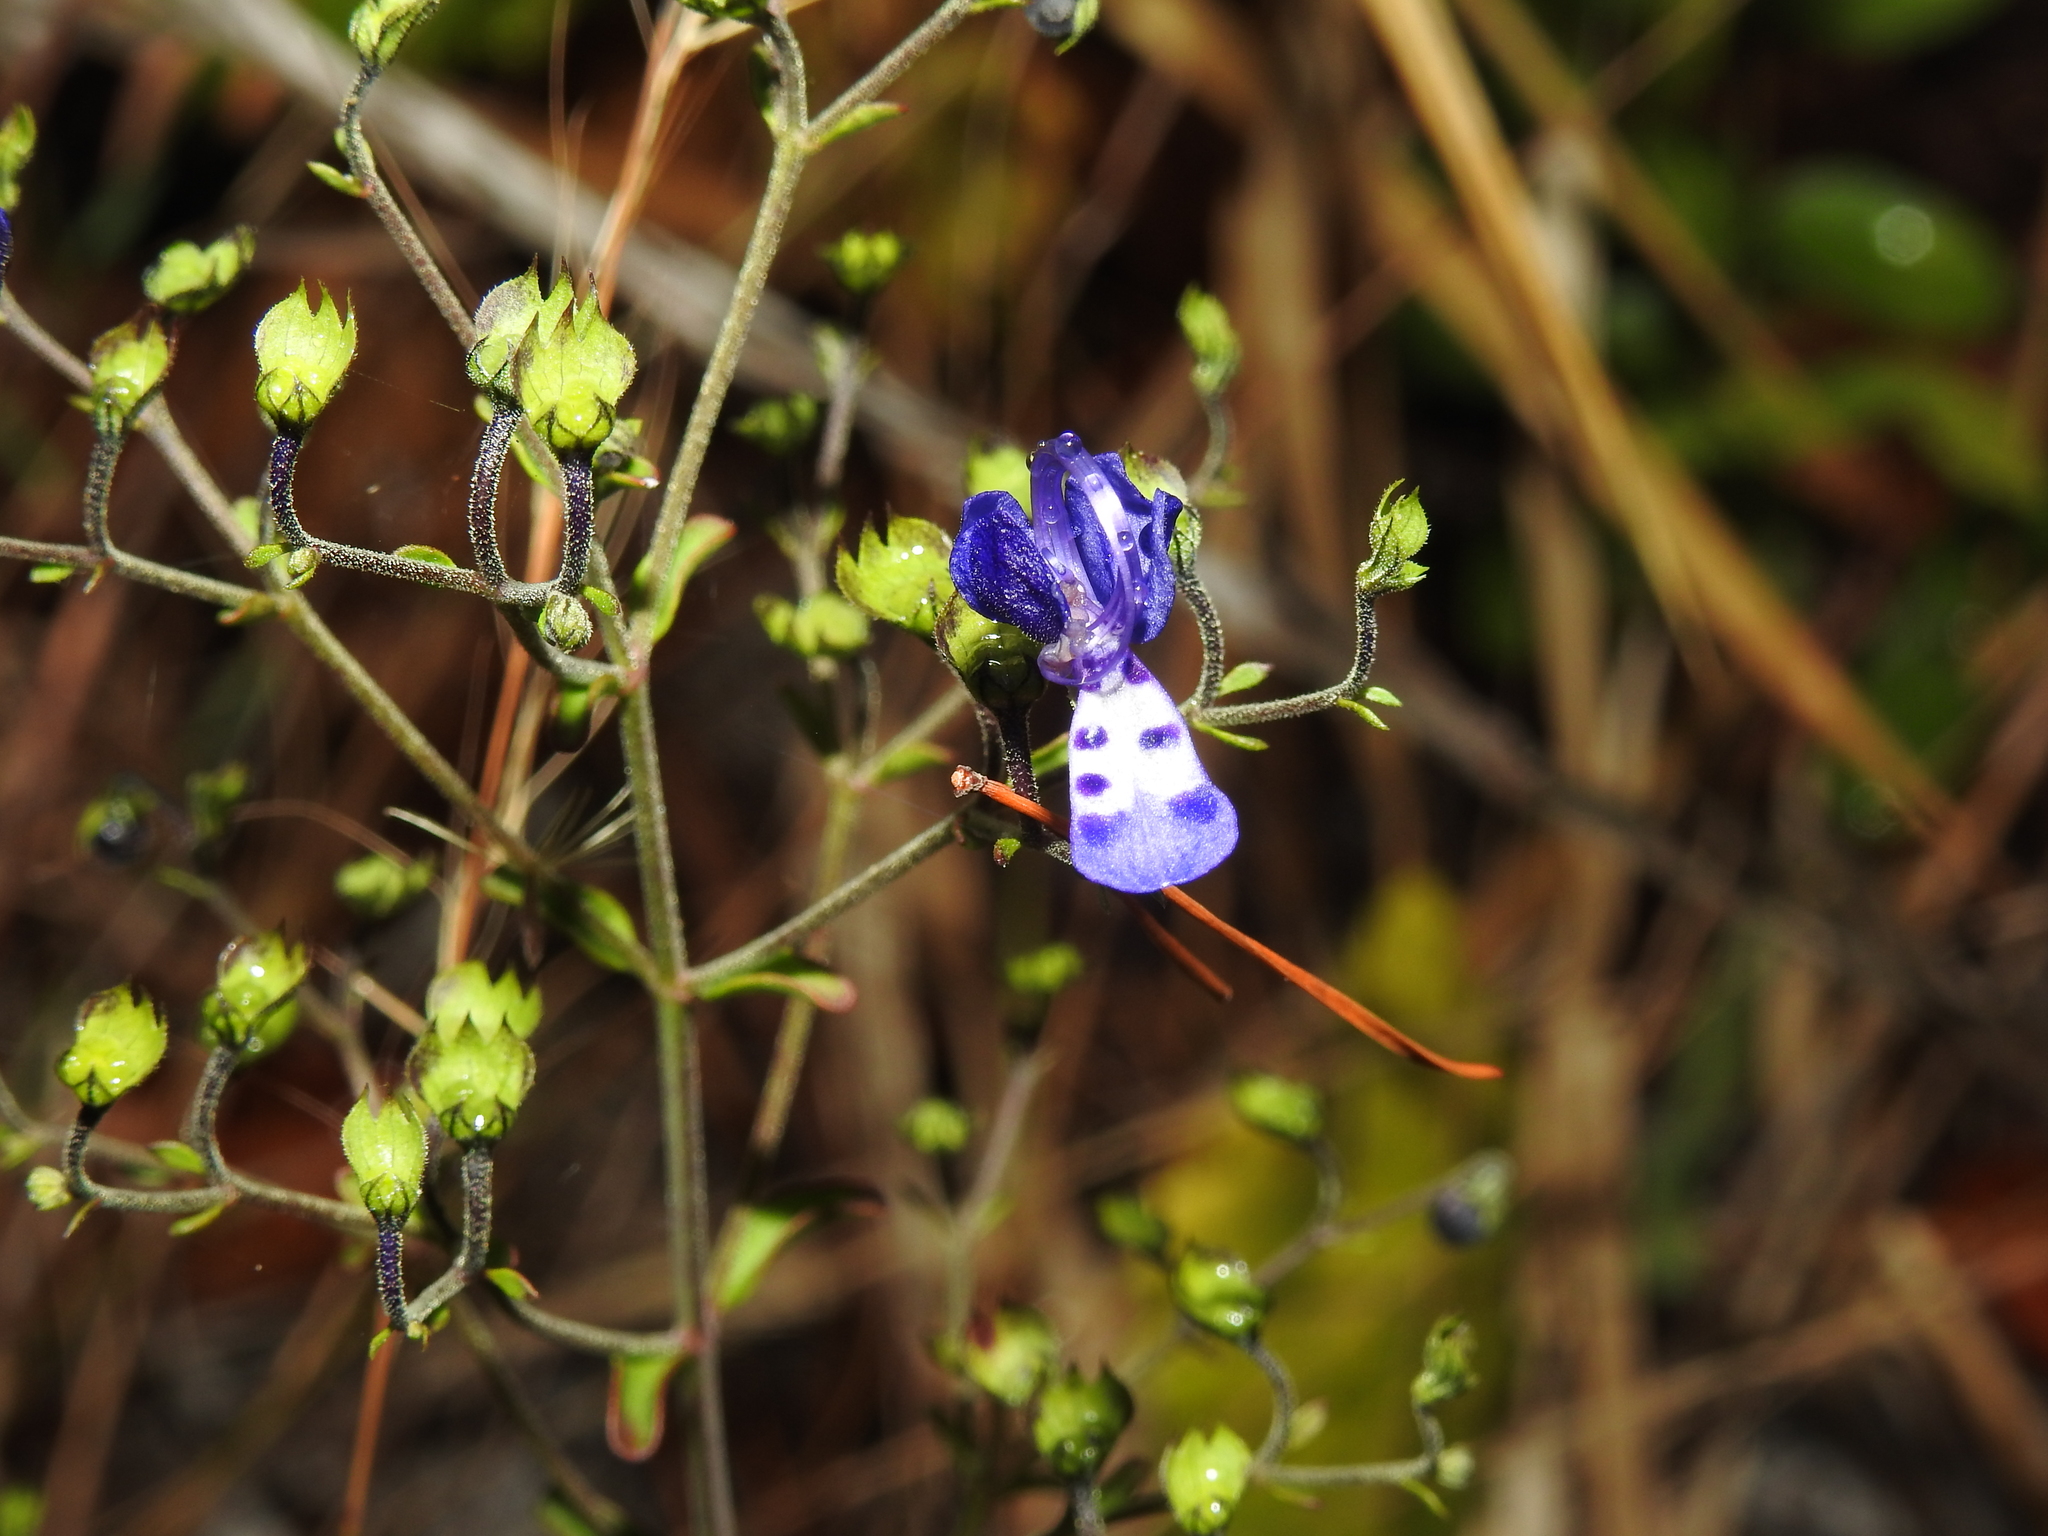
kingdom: Plantae
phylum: Tracheophyta
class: Magnoliopsida
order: Lamiales
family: Lamiaceae
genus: Trichostema
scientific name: Trichostema suffrutescens
